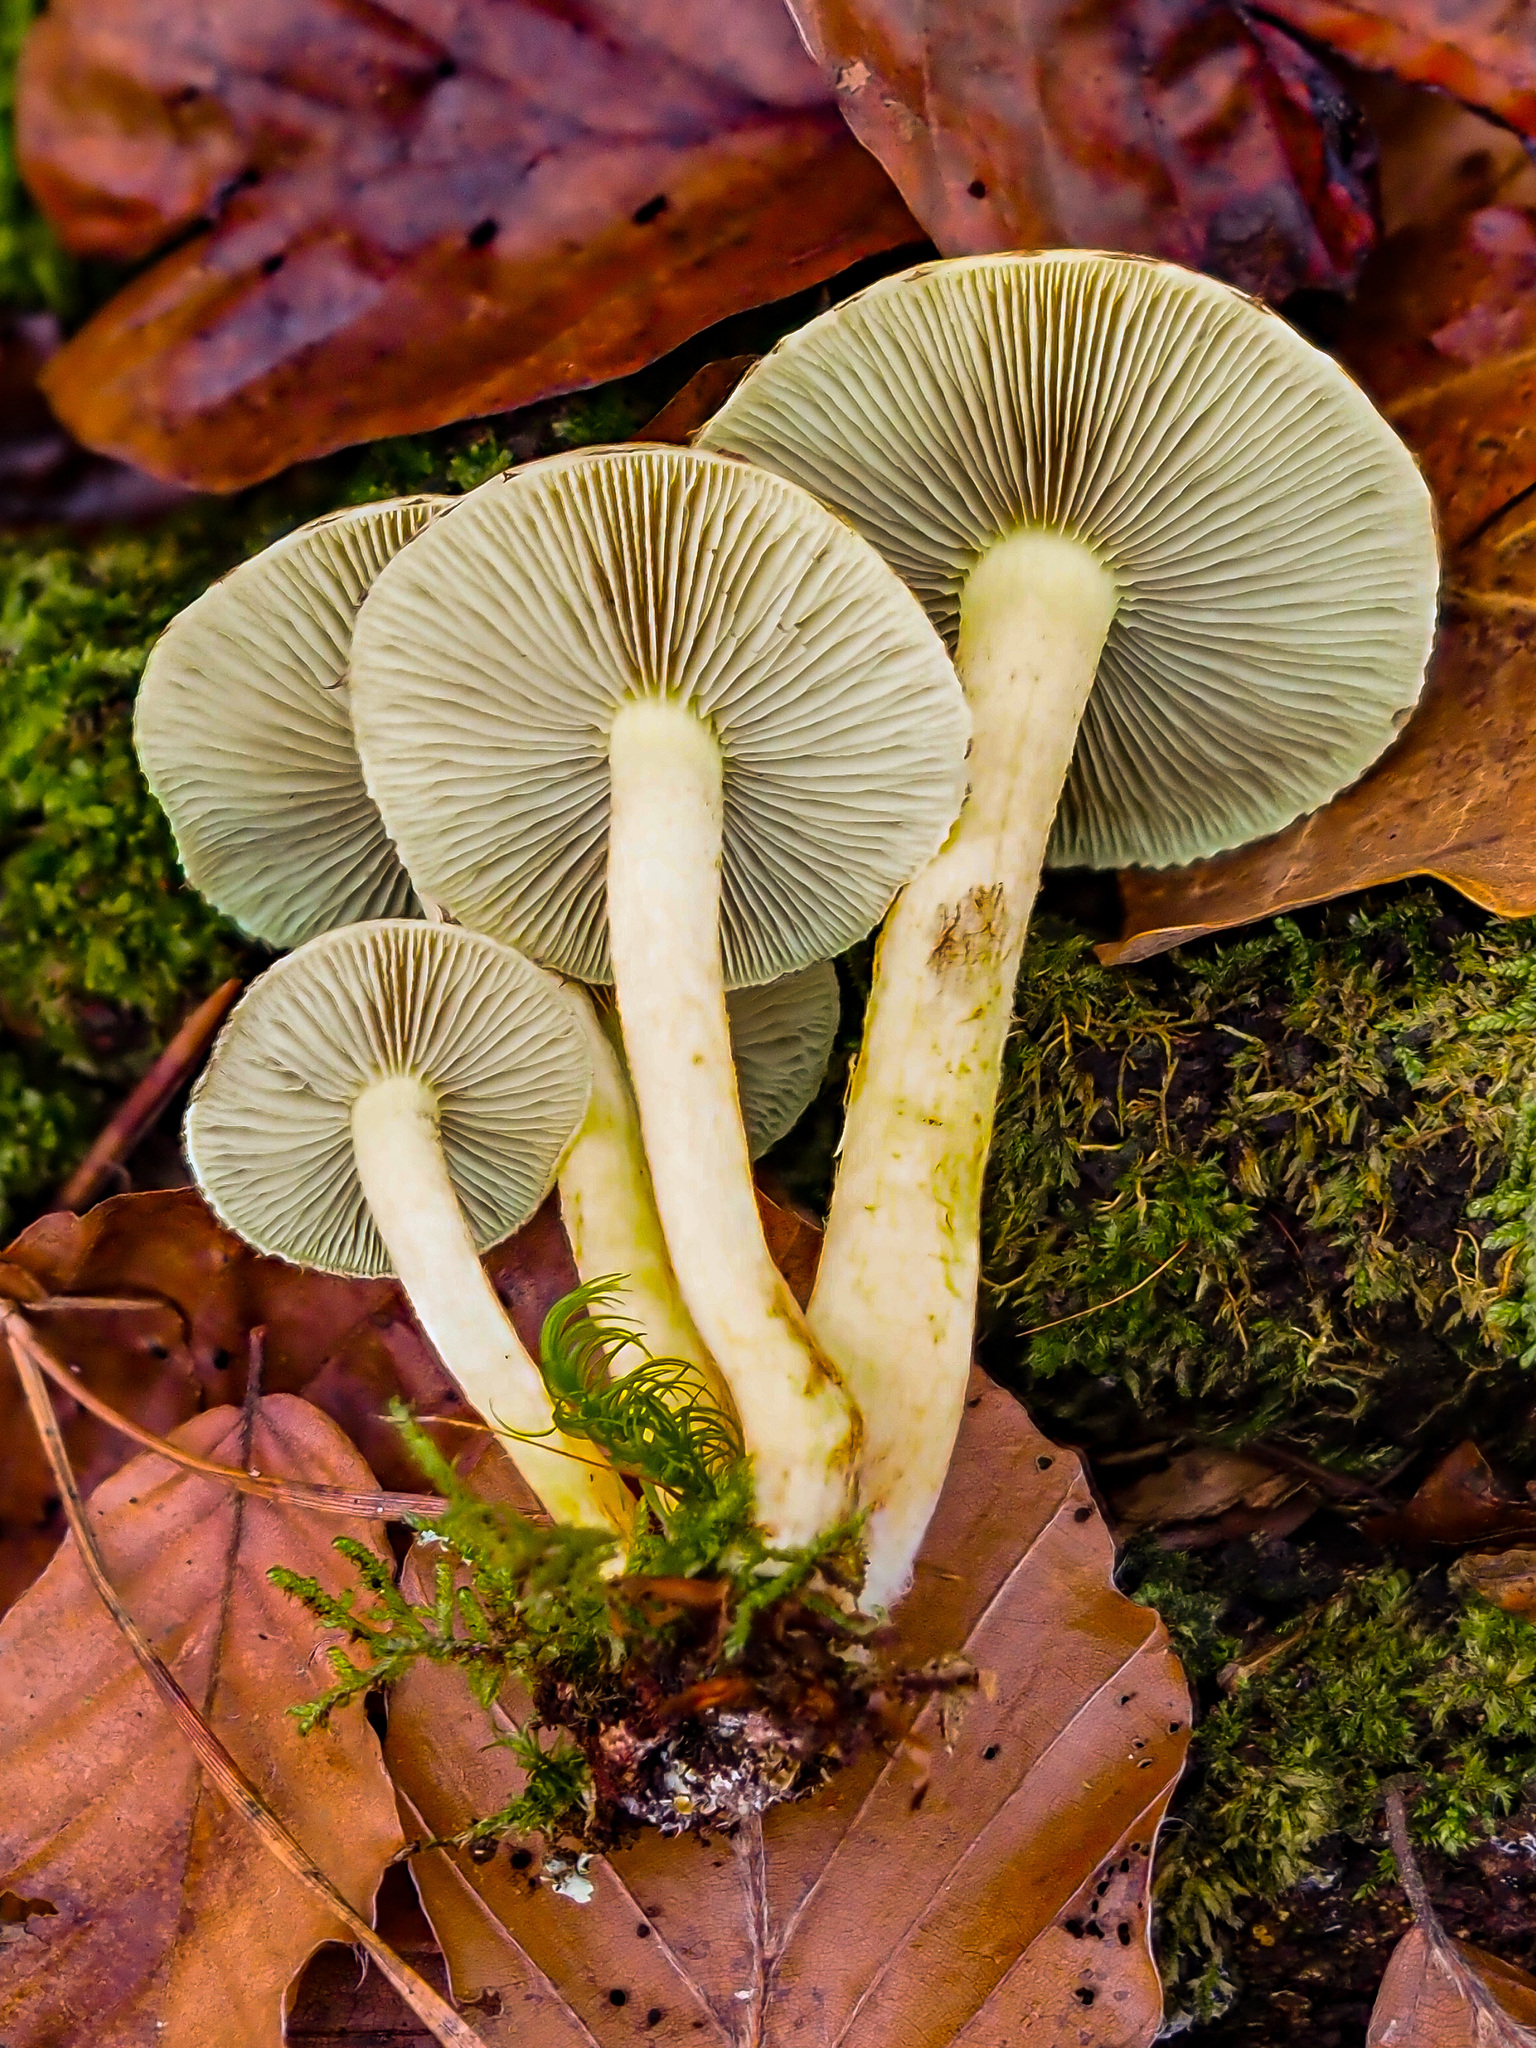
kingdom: Fungi
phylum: Basidiomycota
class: Agaricomycetes
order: Agaricales
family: Strophariaceae
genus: Hypholoma
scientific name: Hypholoma fasciculare
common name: Sulphur tuft
